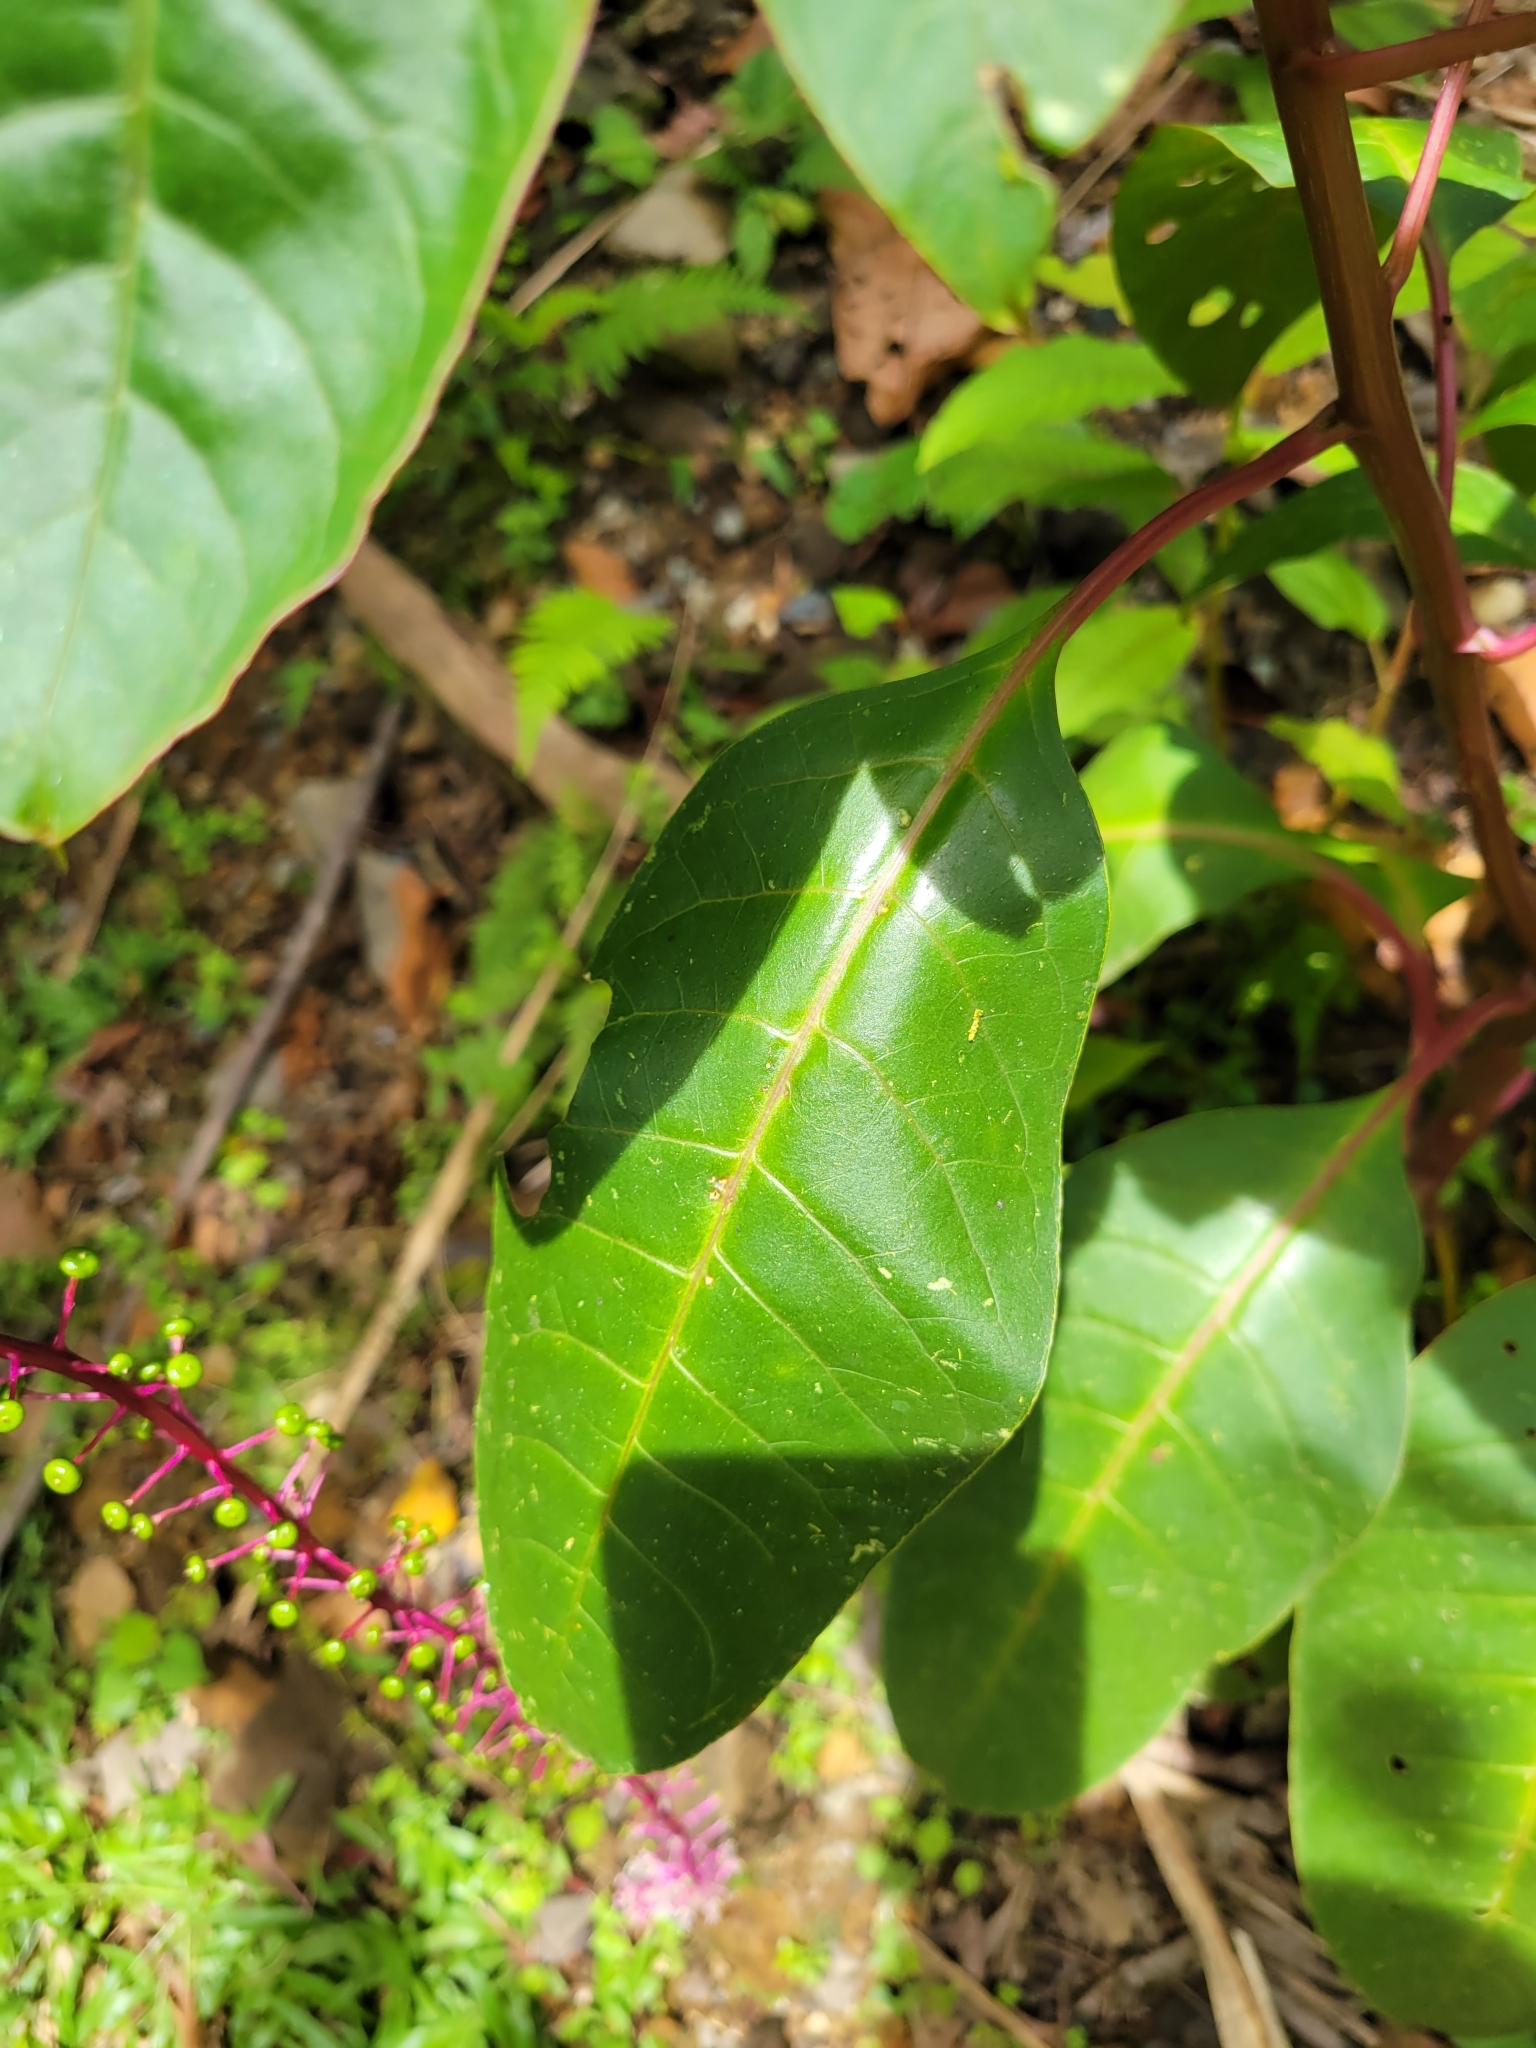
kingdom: Plantae
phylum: Tracheophyta
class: Magnoliopsida
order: Caryophyllales
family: Phytolaccaceae
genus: Phytolacca
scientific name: Phytolacca rivinoides
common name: Venezuelan pokeweed
